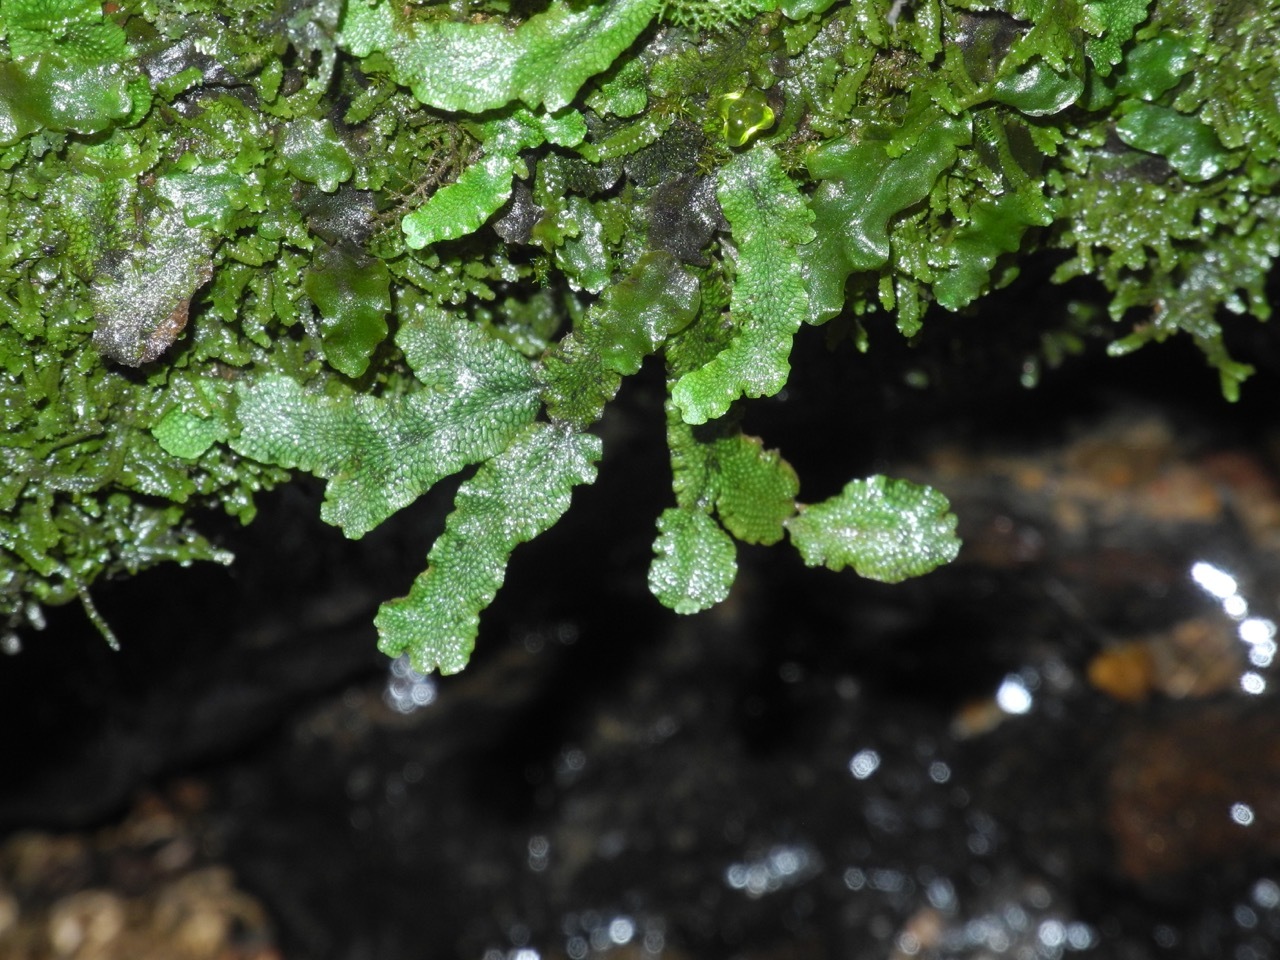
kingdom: Plantae
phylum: Marchantiophyta
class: Marchantiopsida
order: Marchantiales
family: Conocephalaceae
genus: Conocephalum
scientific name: Conocephalum salebrosum
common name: Cat-tongue liverwort
